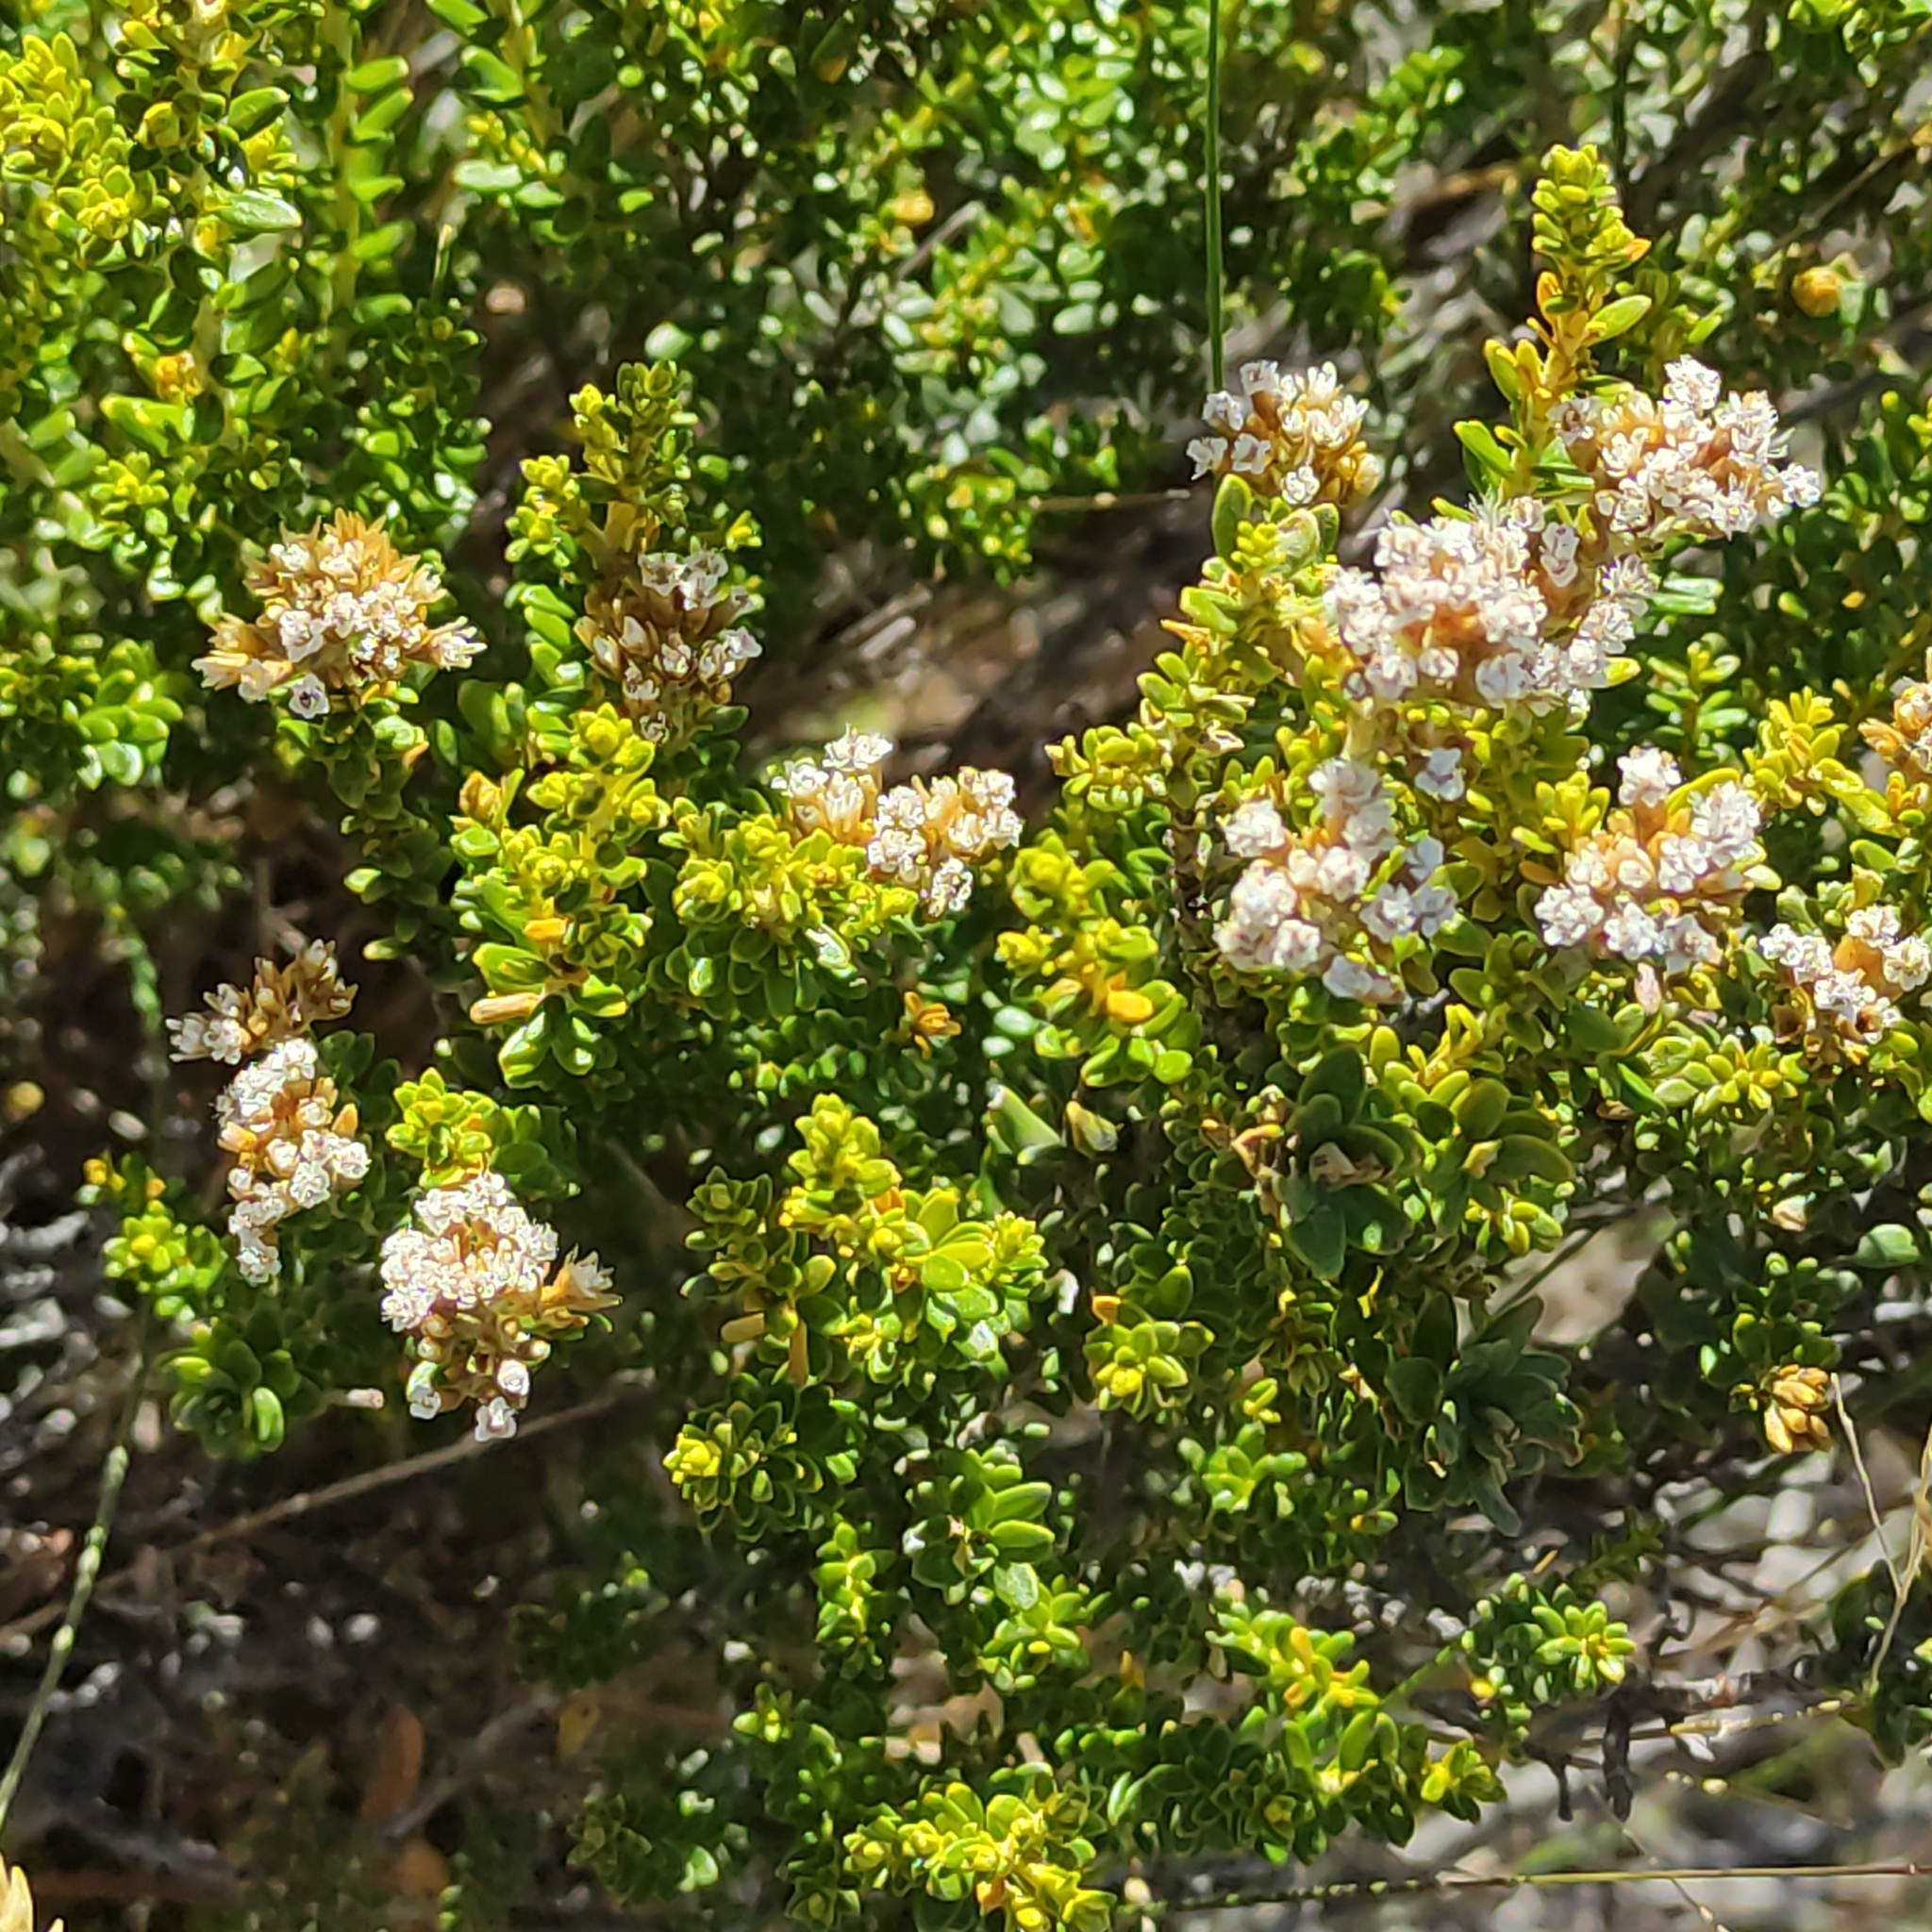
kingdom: Plantae
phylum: Tracheophyta
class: Magnoliopsida
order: Asterales
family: Asteraceae
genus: Ozothamnus
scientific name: Ozothamnus leptophyllus
